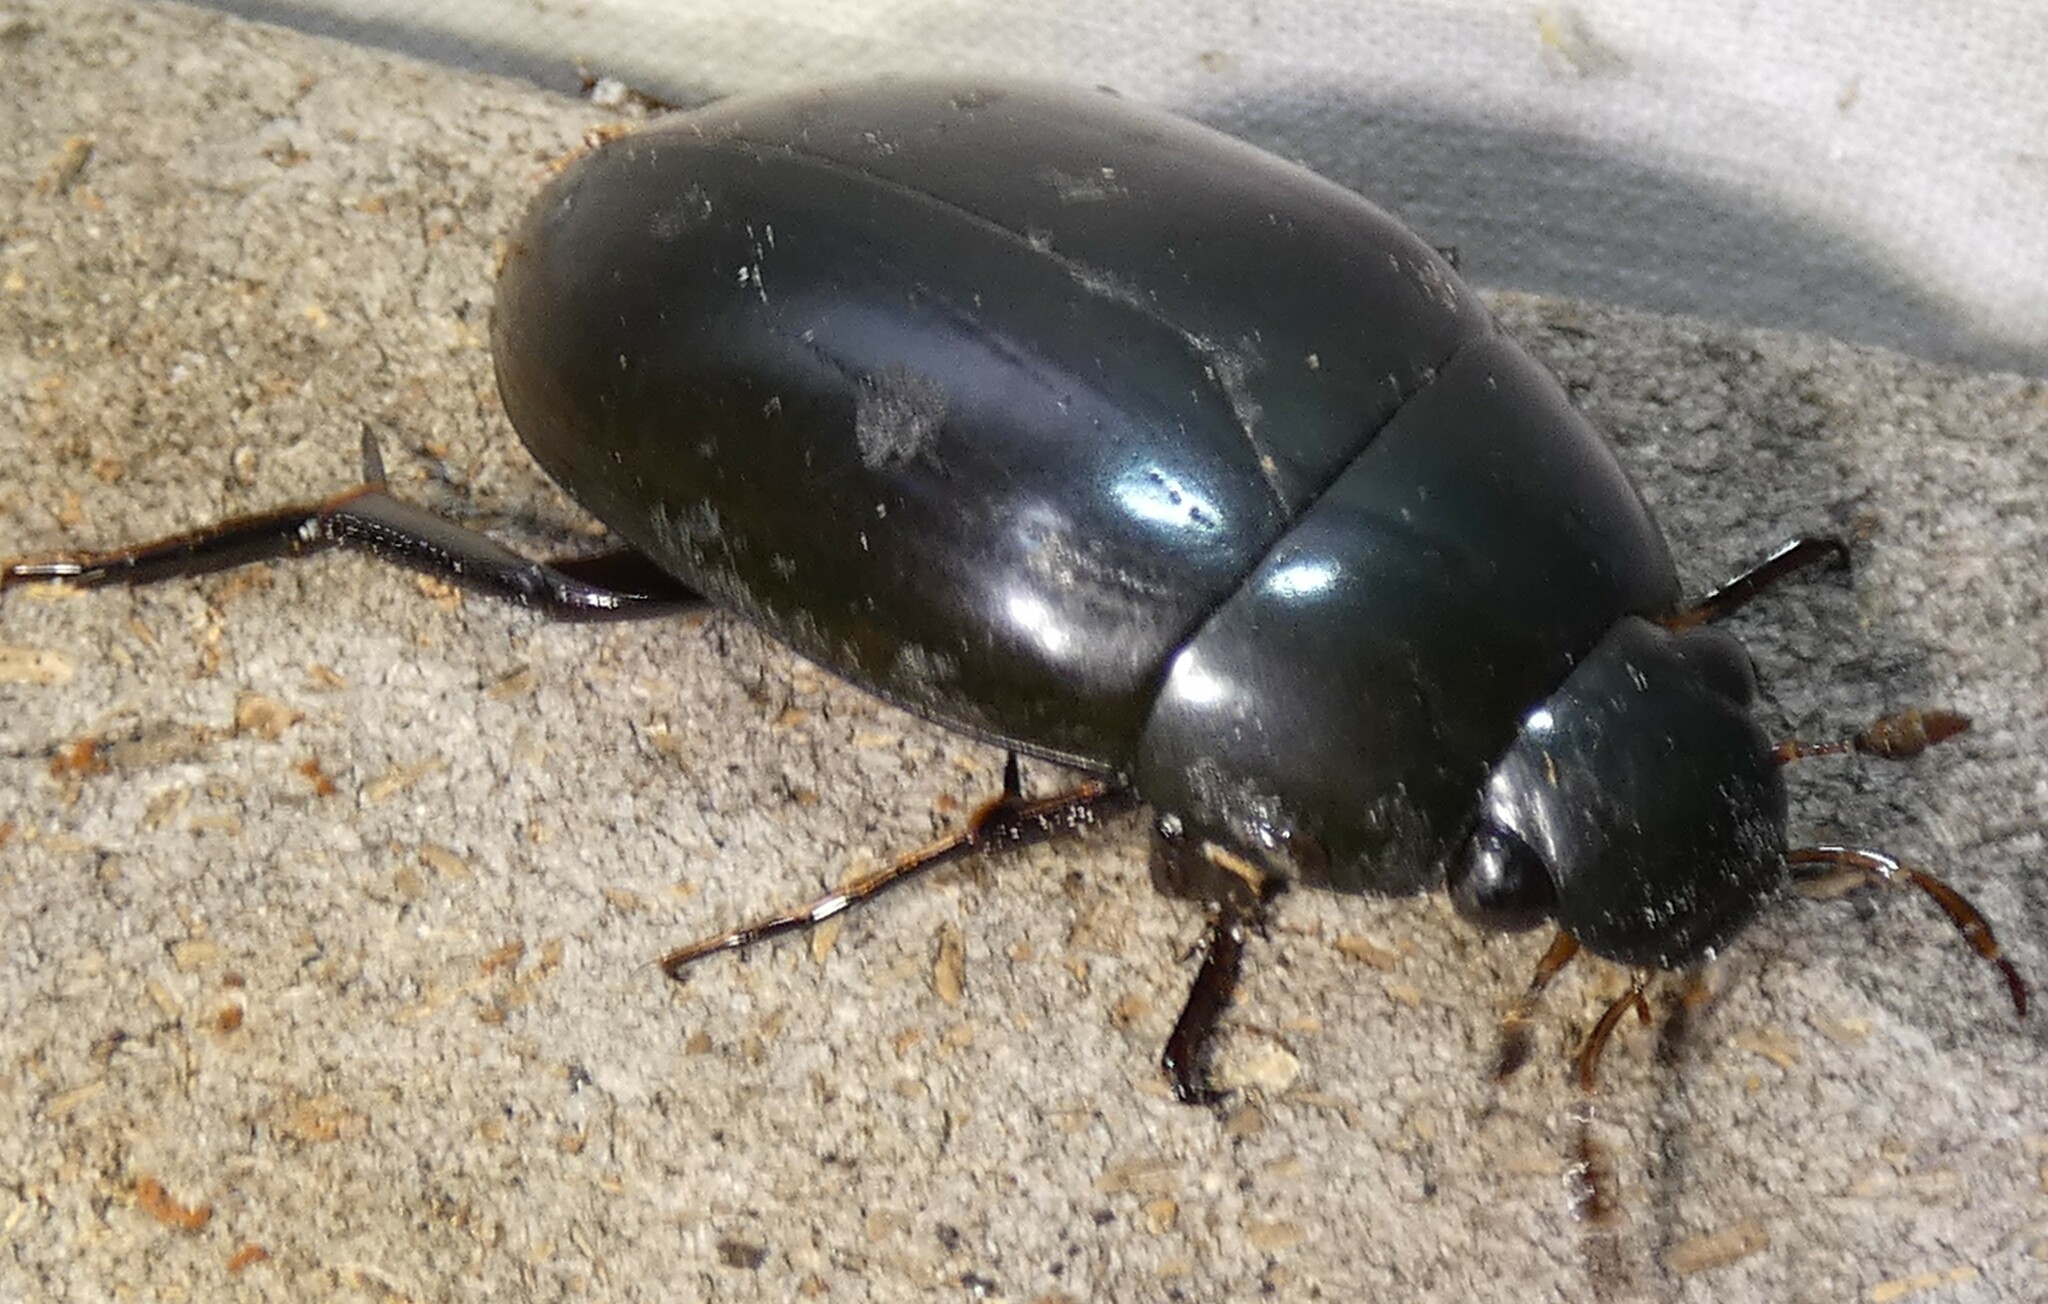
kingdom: Animalia
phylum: Arthropoda
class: Insecta
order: Coleoptera
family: Hydrophilidae
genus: Hydrophilus
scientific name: Hydrophilus ovatus
